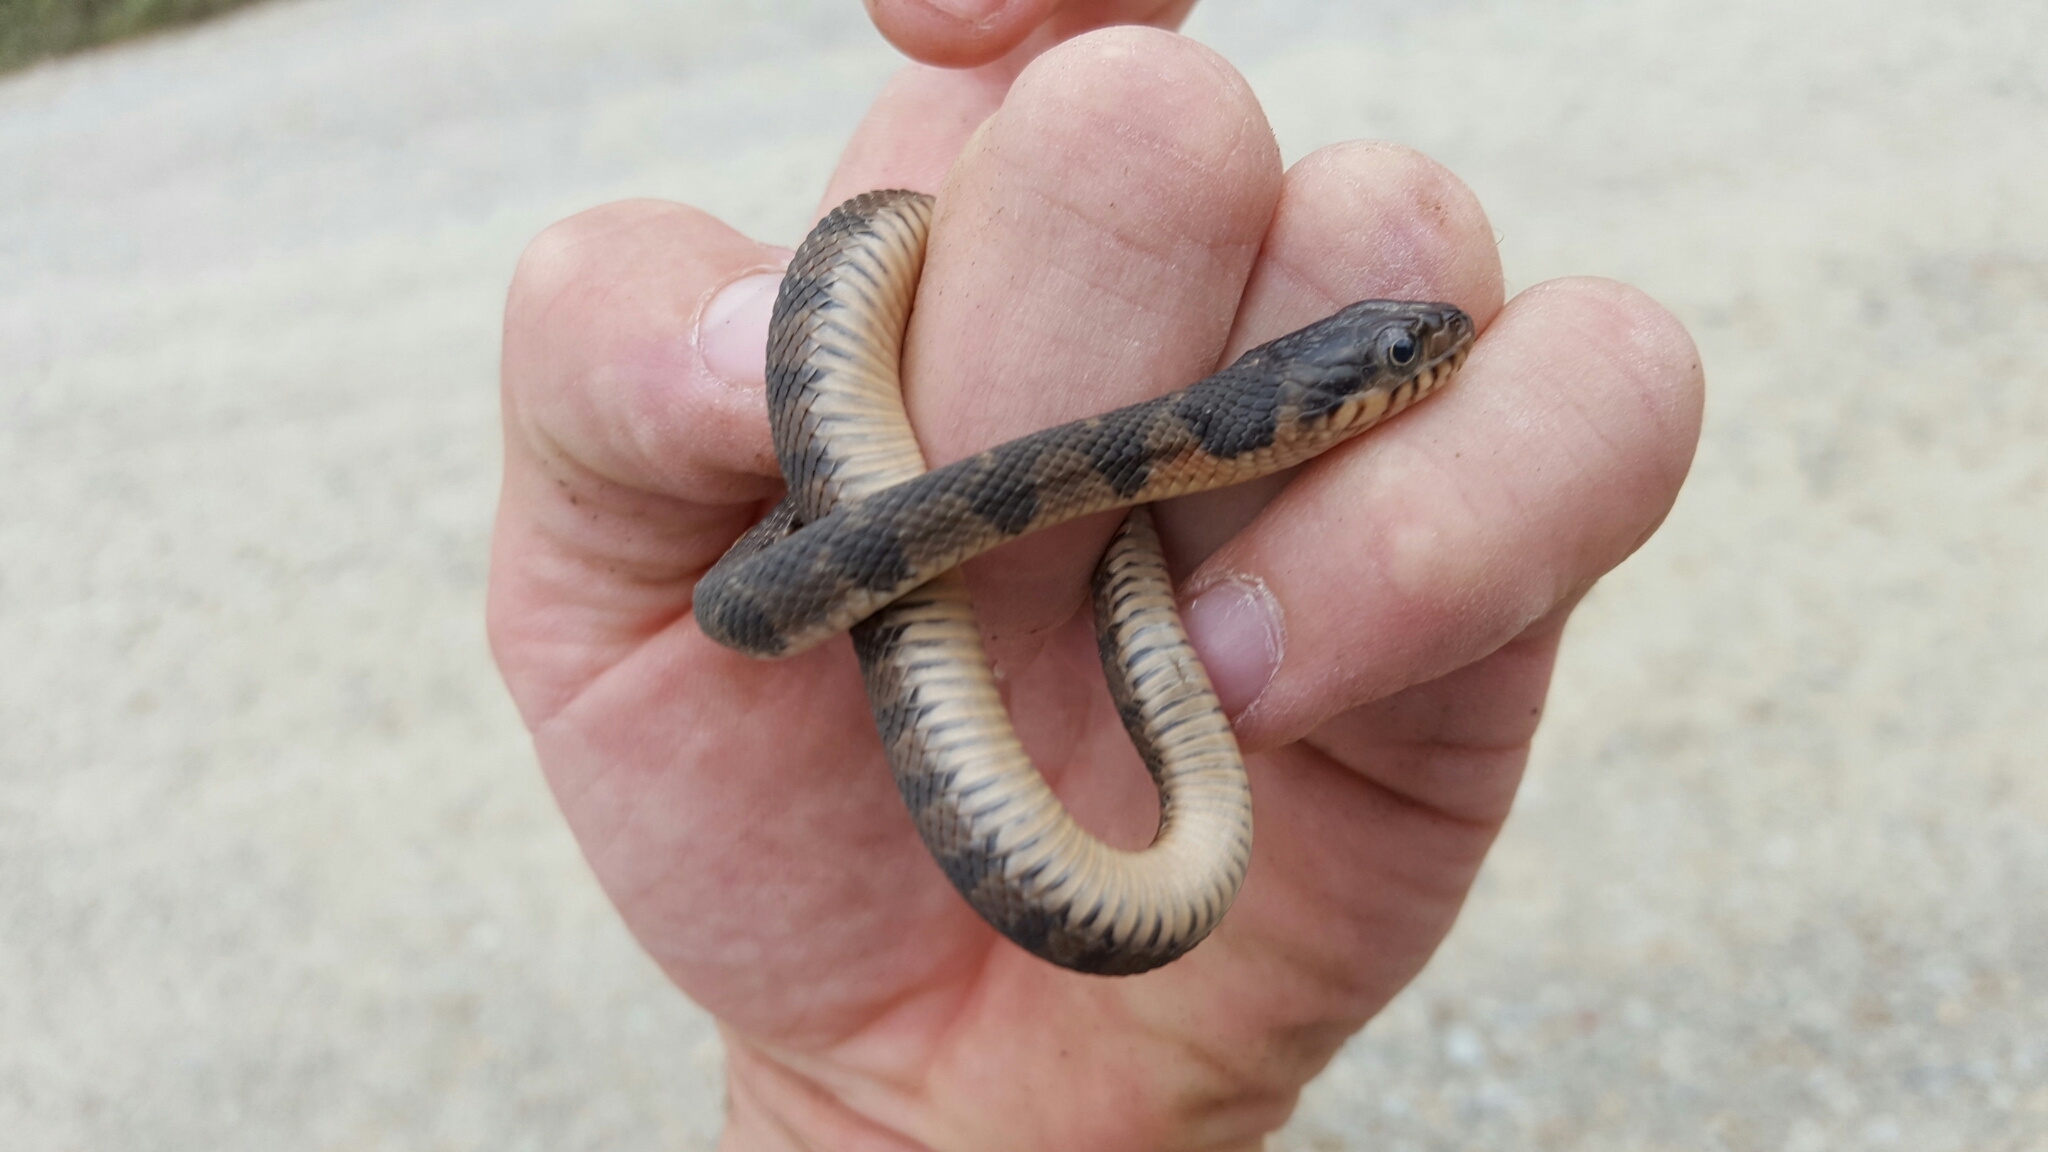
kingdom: Animalia
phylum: Chordata
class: Squamata
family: Colubridae
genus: Nerodia
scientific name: Nerodia erythrogaster
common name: Plainbelly water snake
